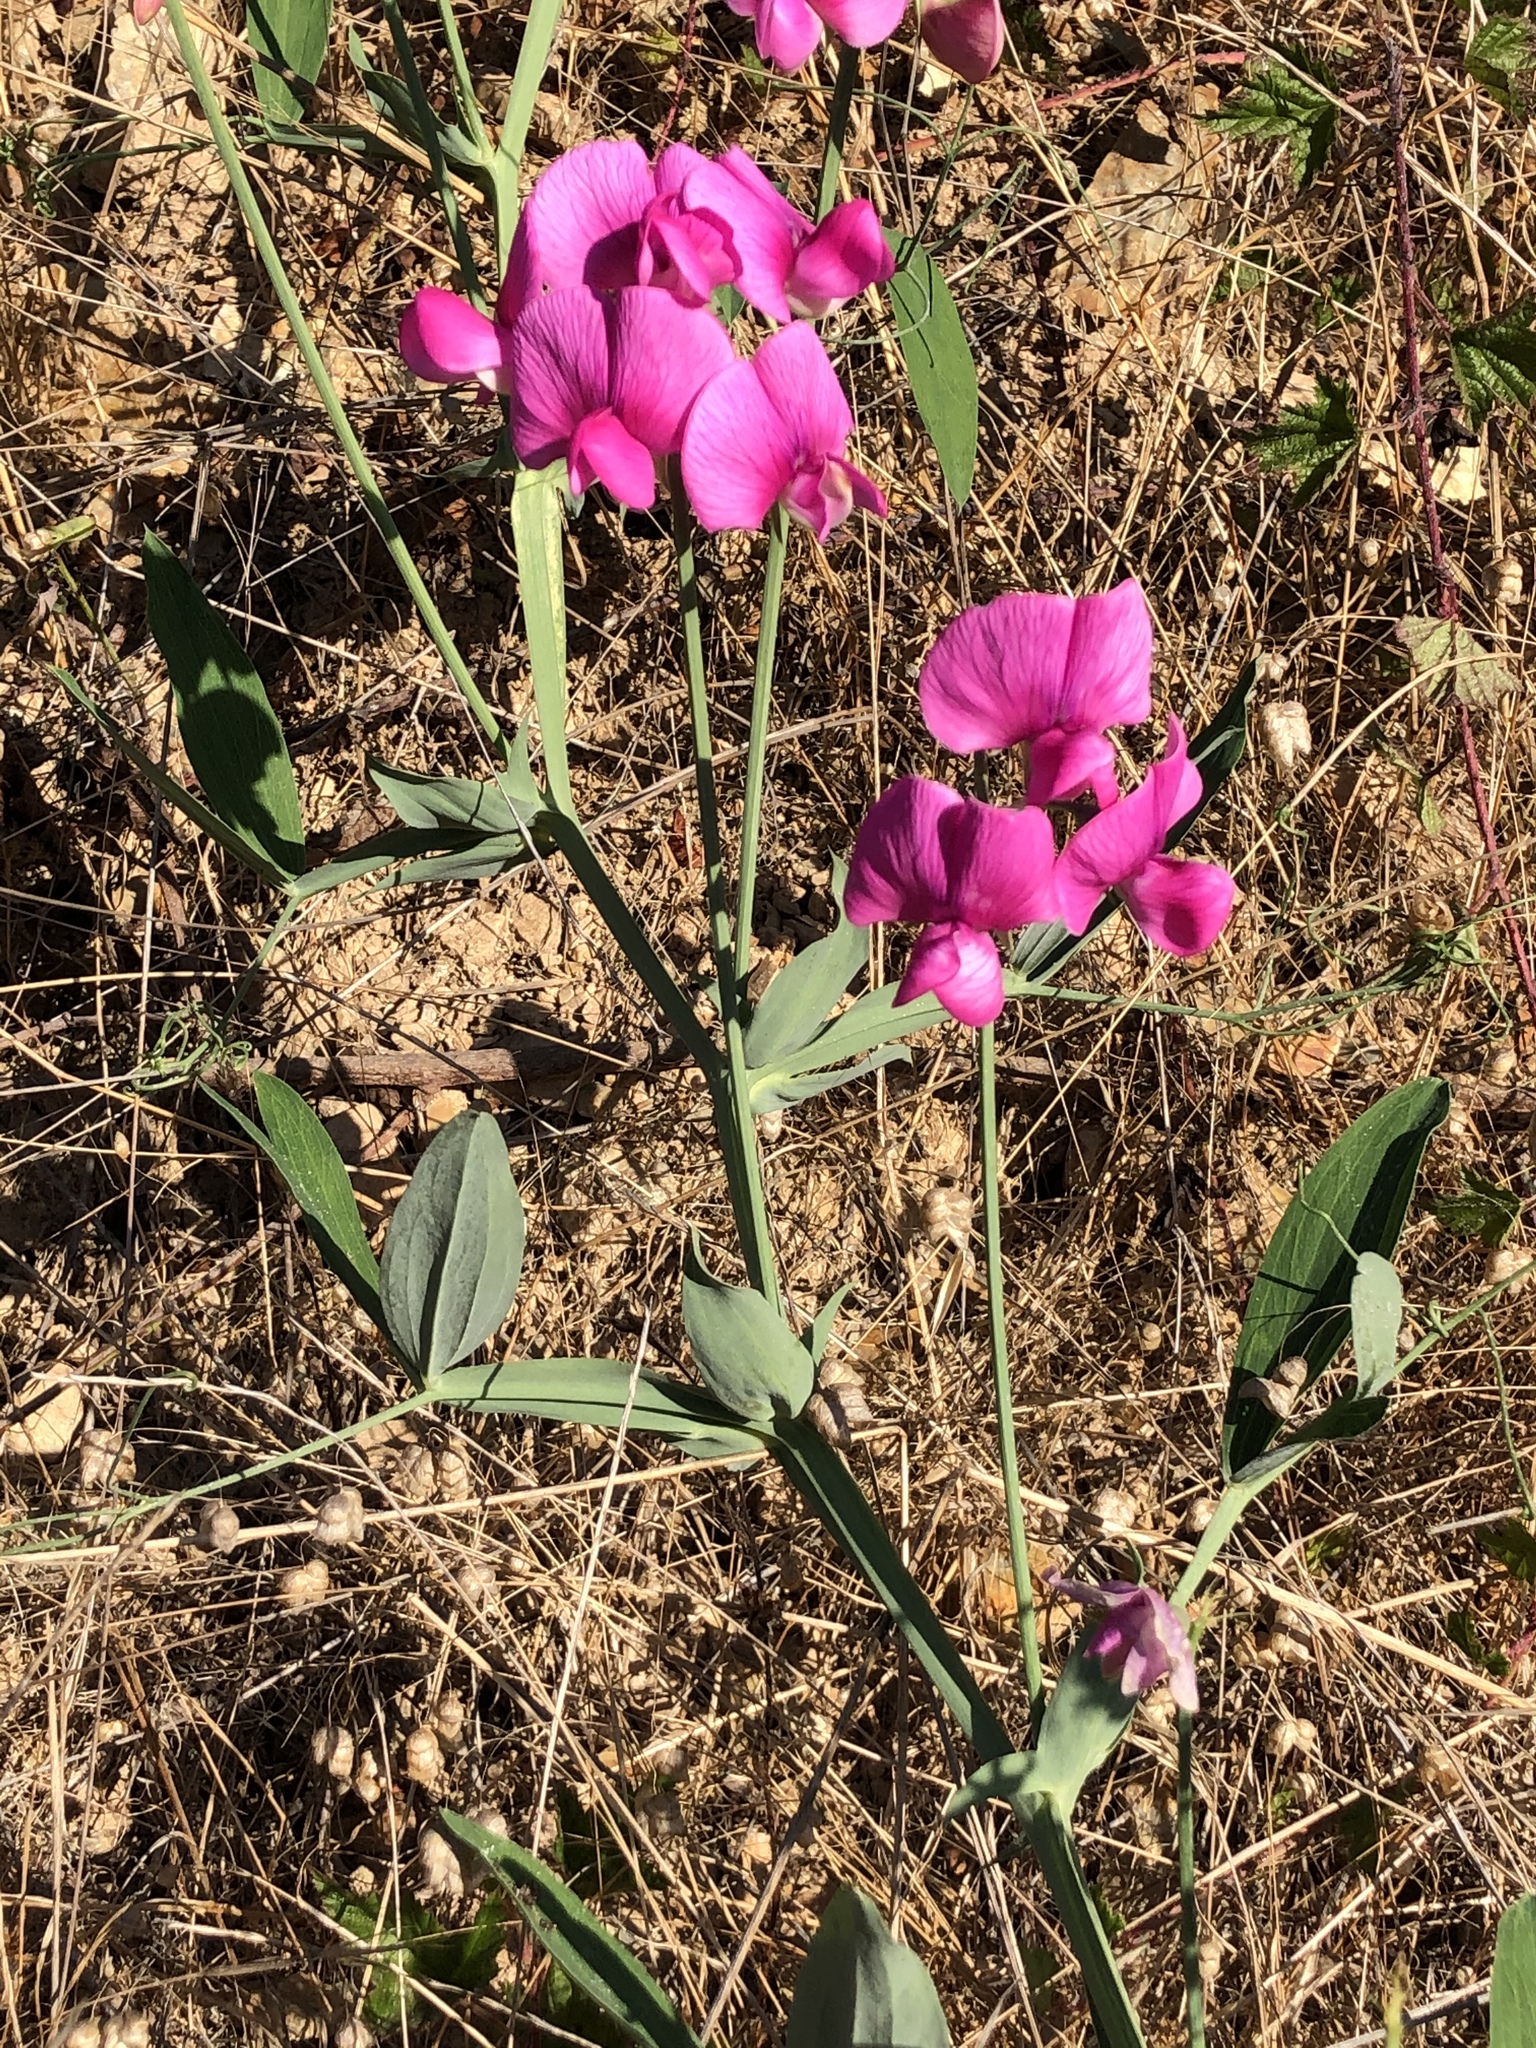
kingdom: Plantae
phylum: Tracheophyta
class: Magnoliopsida
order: Fabales
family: Fabaceae
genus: Lathyrus
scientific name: Lathyrus latifolius
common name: Perennial pea
